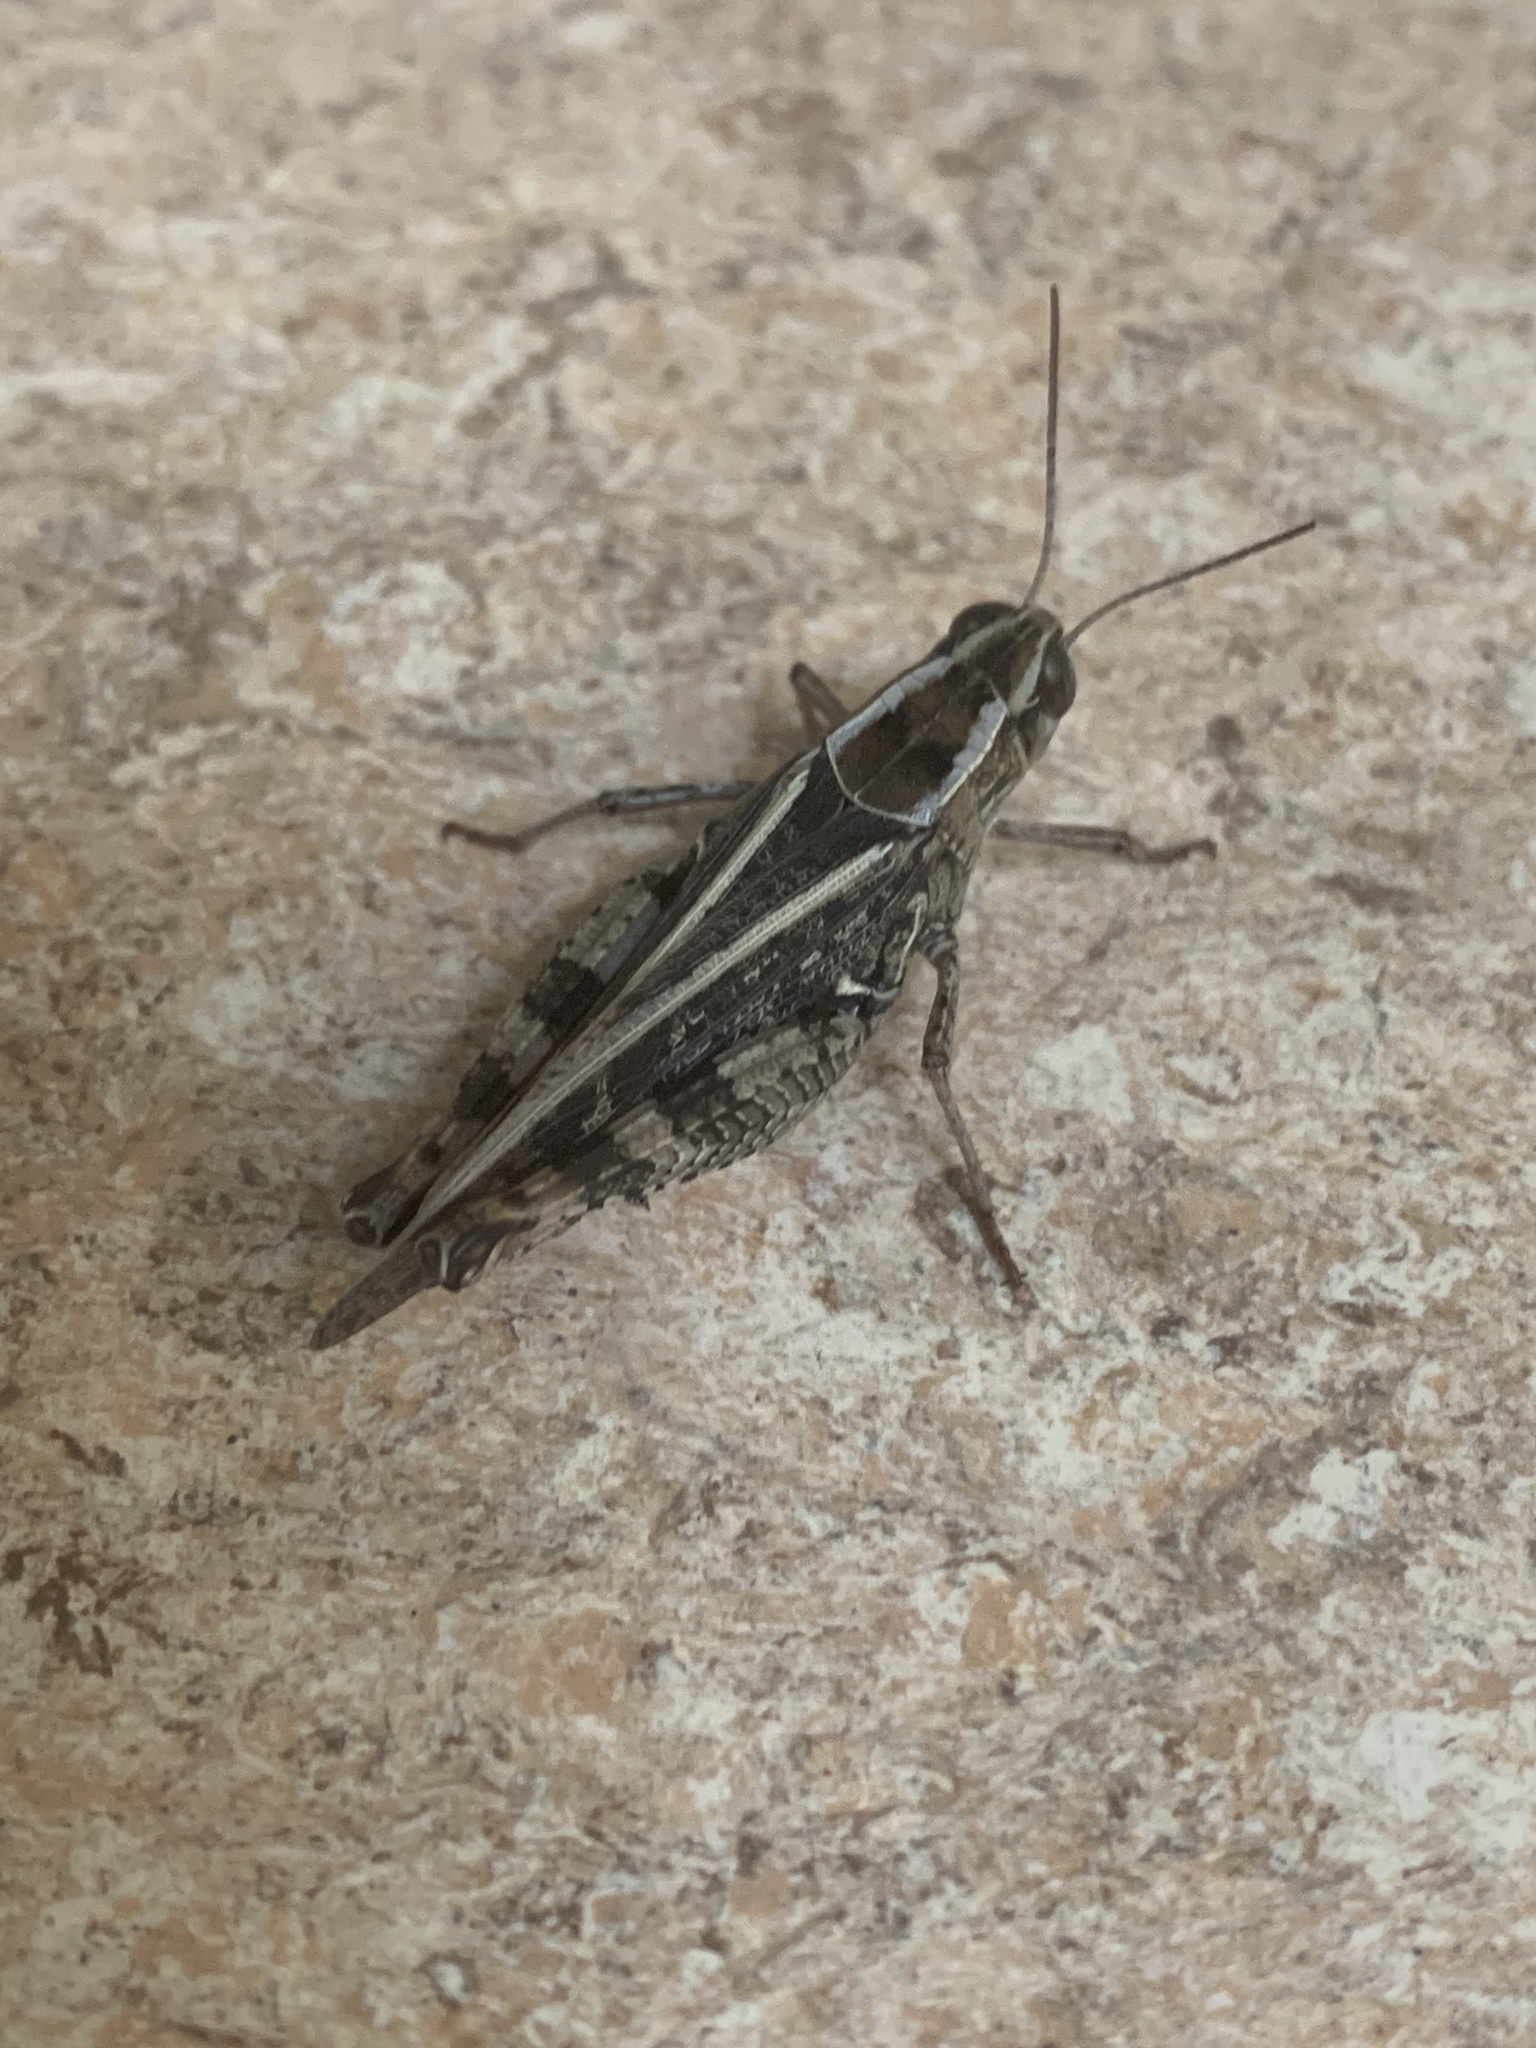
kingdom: Animalia
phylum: Arthropoda
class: Insecta
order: Orthoptera
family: Acrididae
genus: Calliptamus
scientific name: Calliptamus italicus
